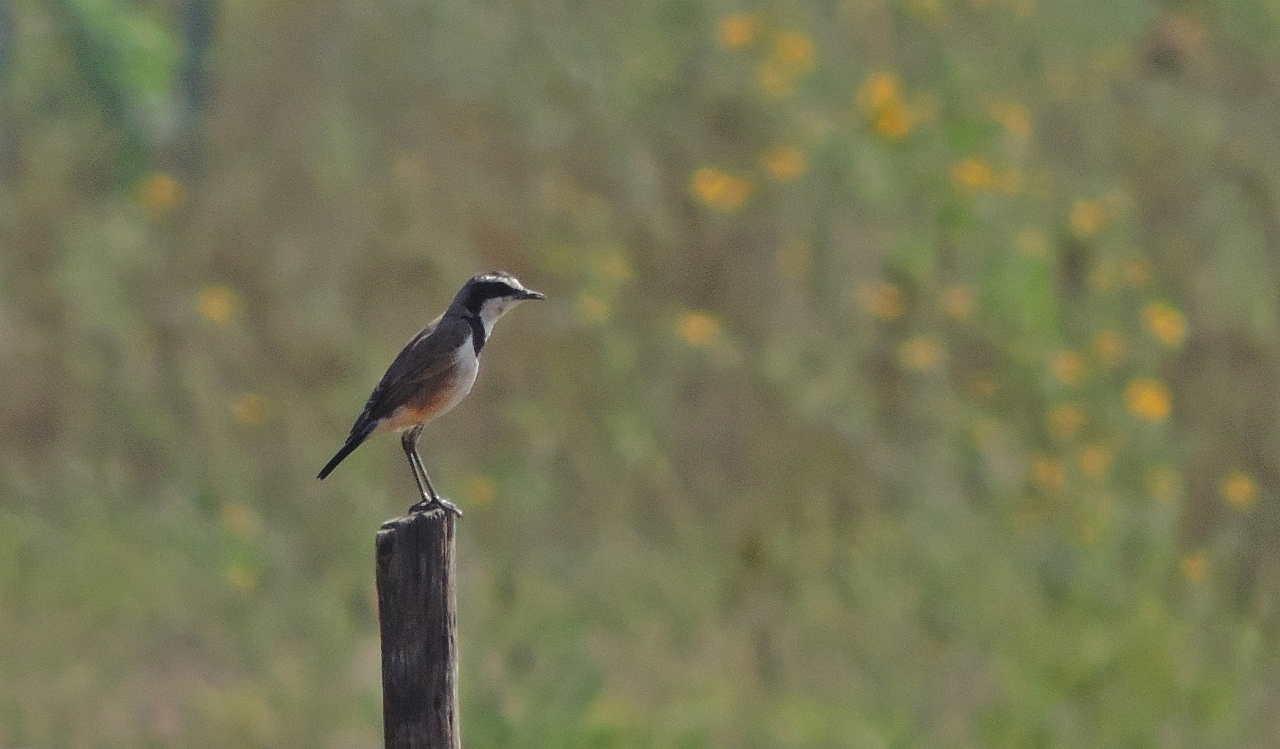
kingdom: Animalia
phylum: Chordata
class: Aves
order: Passeriformes
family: Muscicapidae
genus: Oenanthe
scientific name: Oenanthe pileata
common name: Capped wheatear
